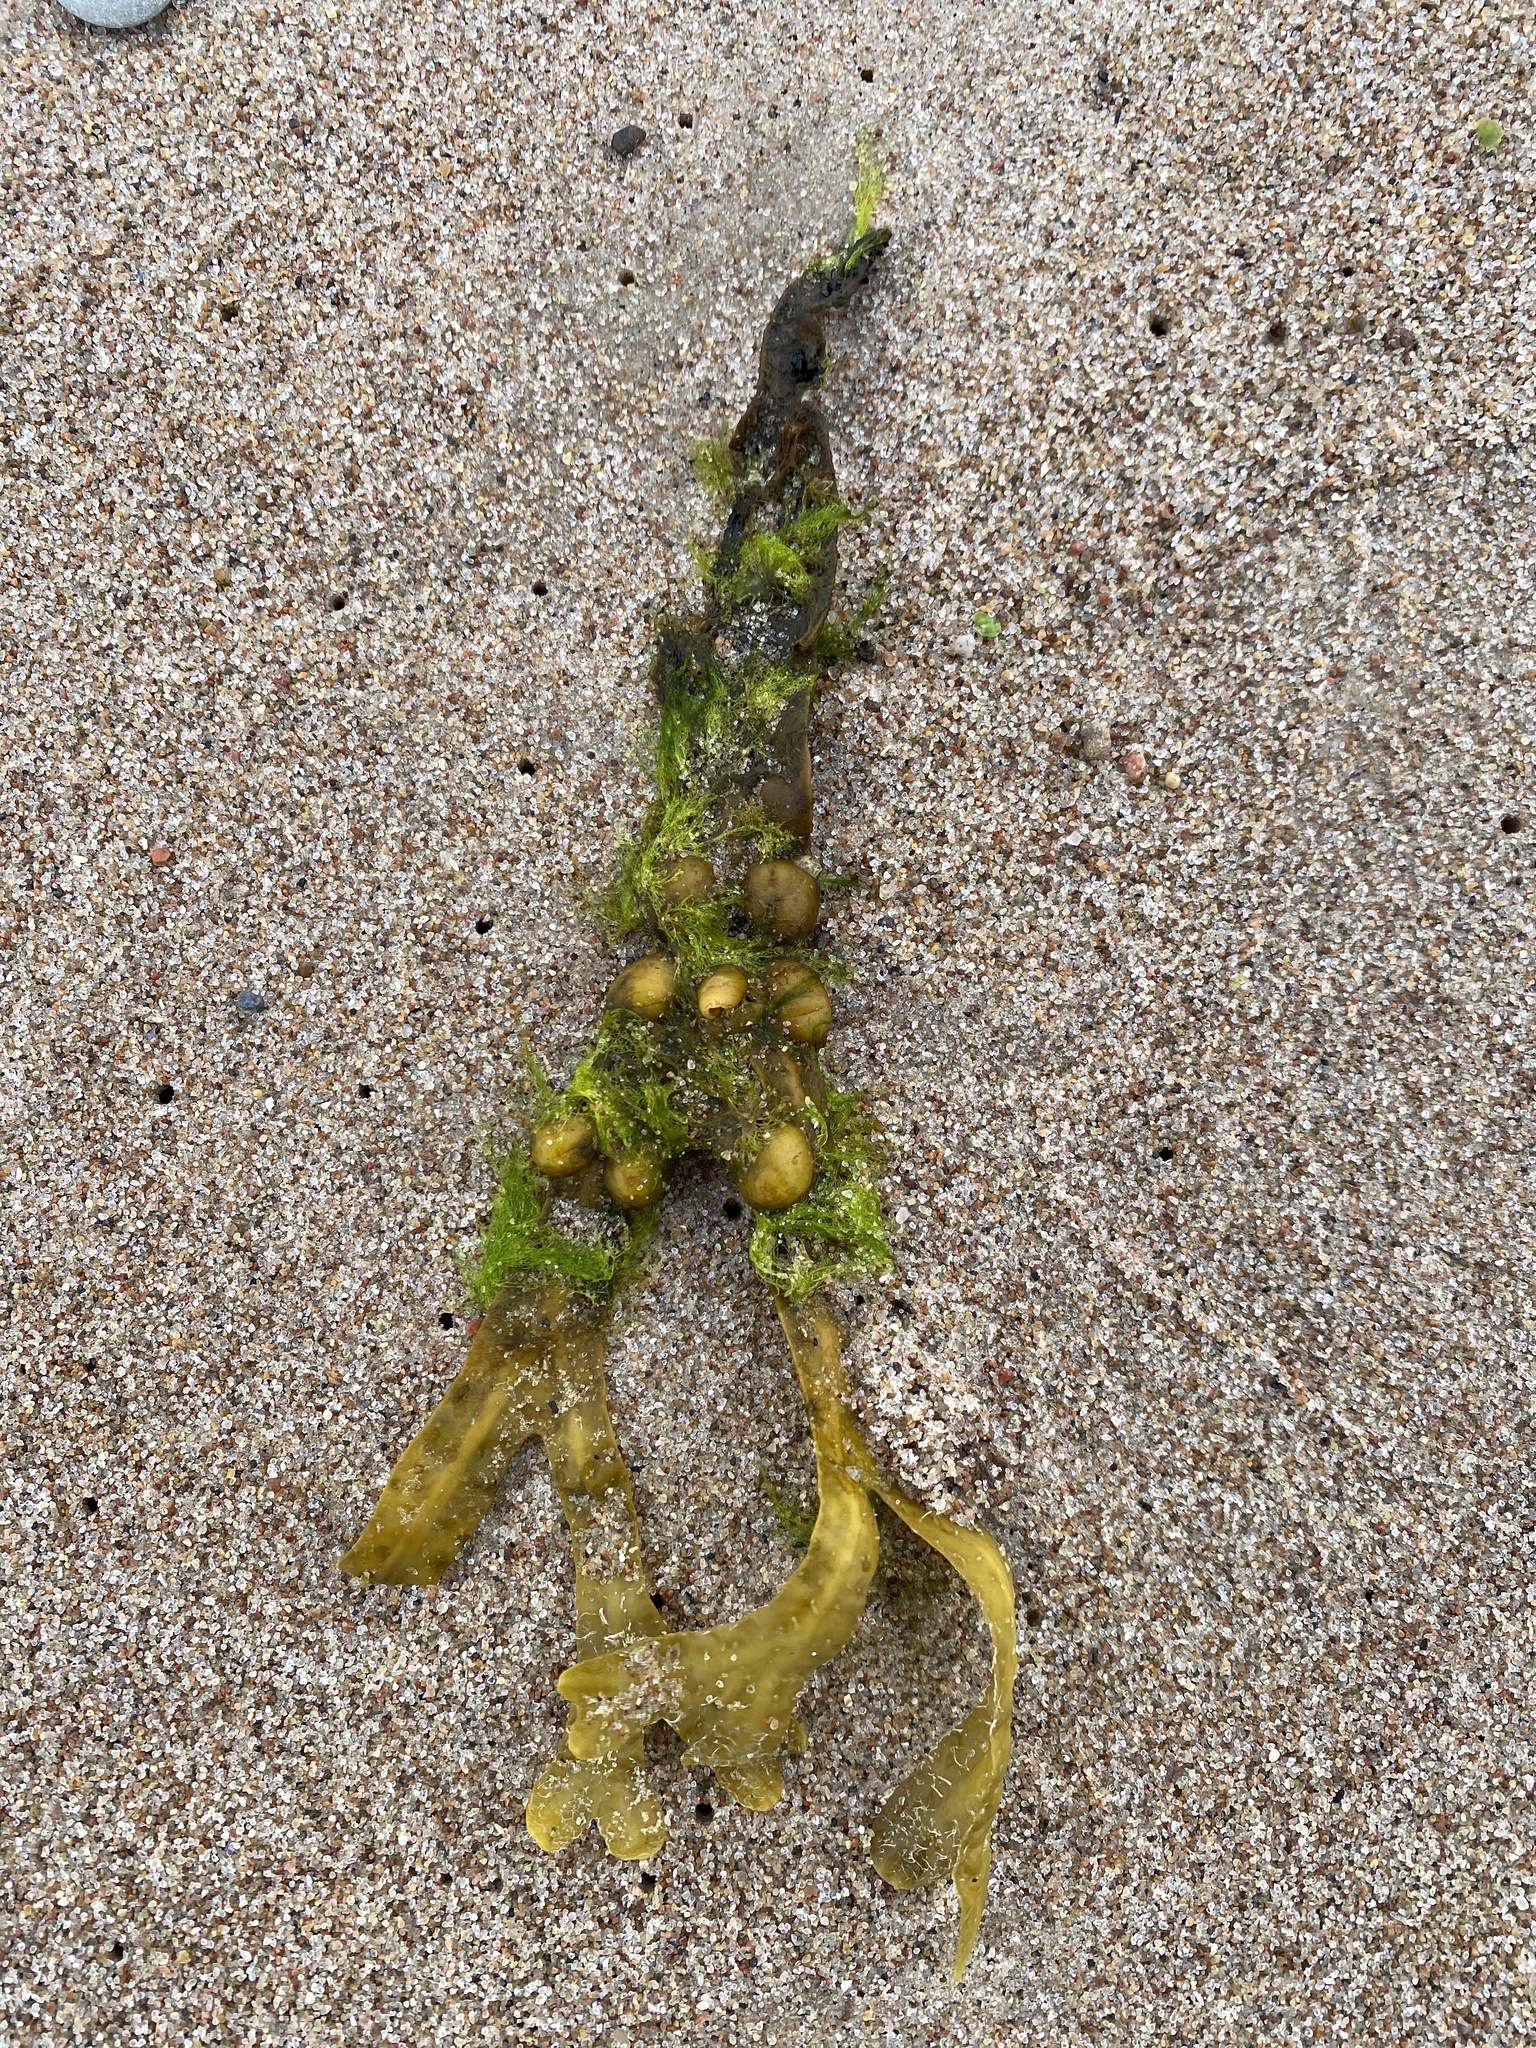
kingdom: Chromista
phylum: Ochrophyta
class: Phaeophyceae
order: Fucales
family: Fucaceae
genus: Fucus
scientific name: Fucus vesiculosus
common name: Bladder wrack
